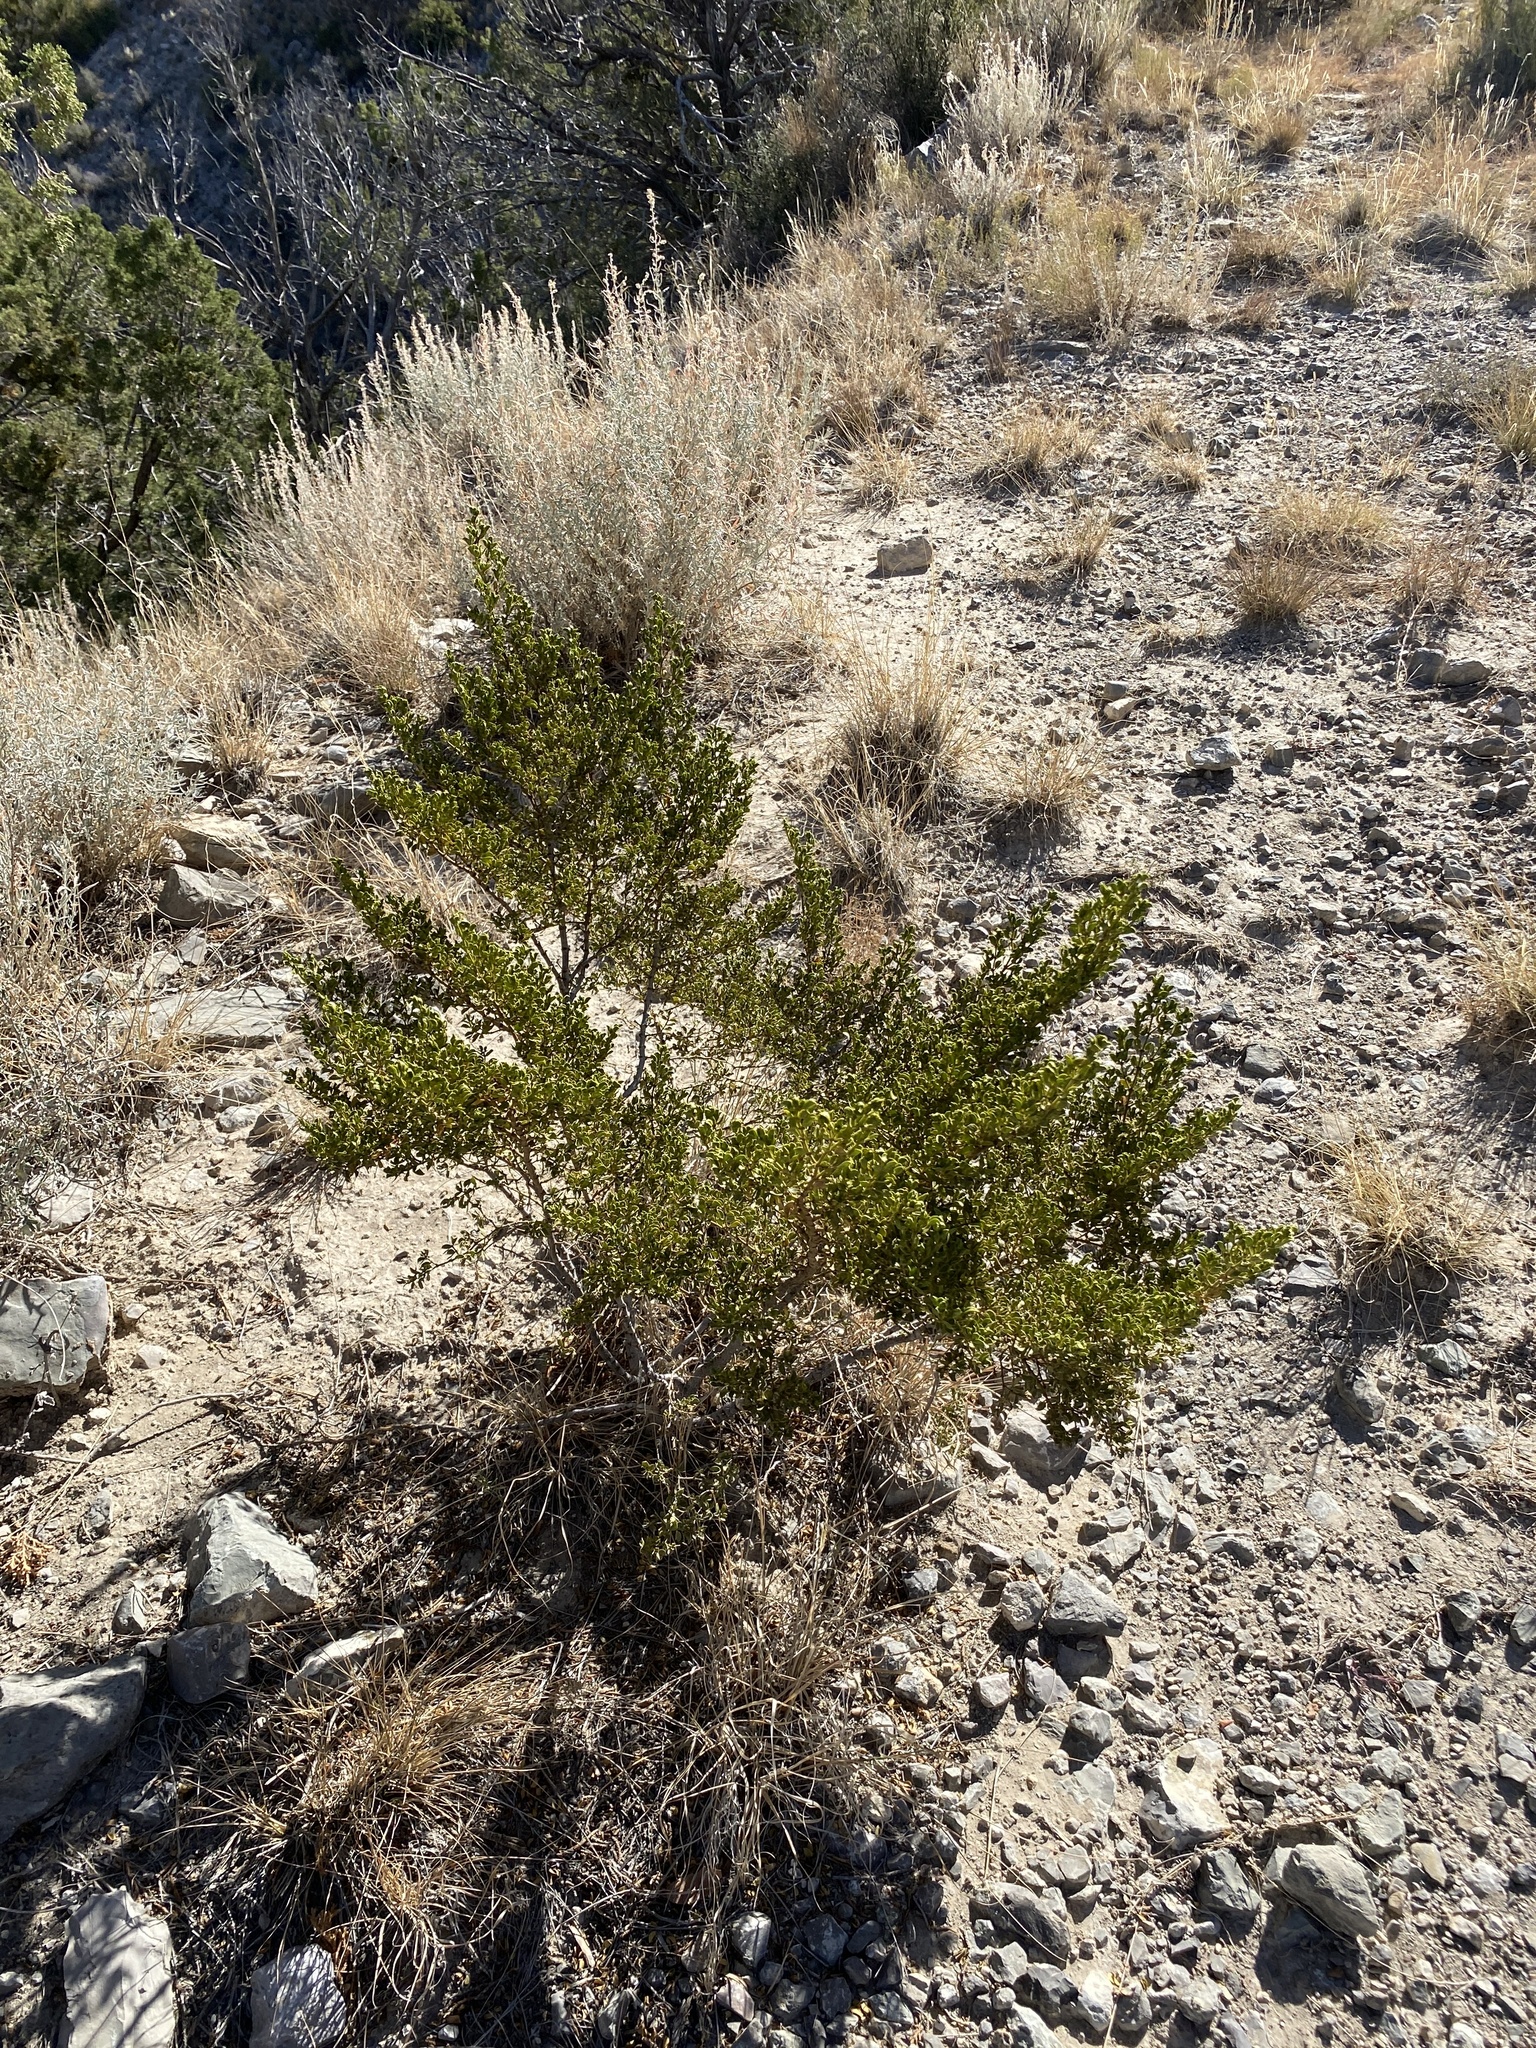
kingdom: Plantae
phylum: Tracheophyta
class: Magnoliopsida
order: Zygophyllales
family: Zygophyllaceae
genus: Larrea
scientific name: Larrea tridentata
